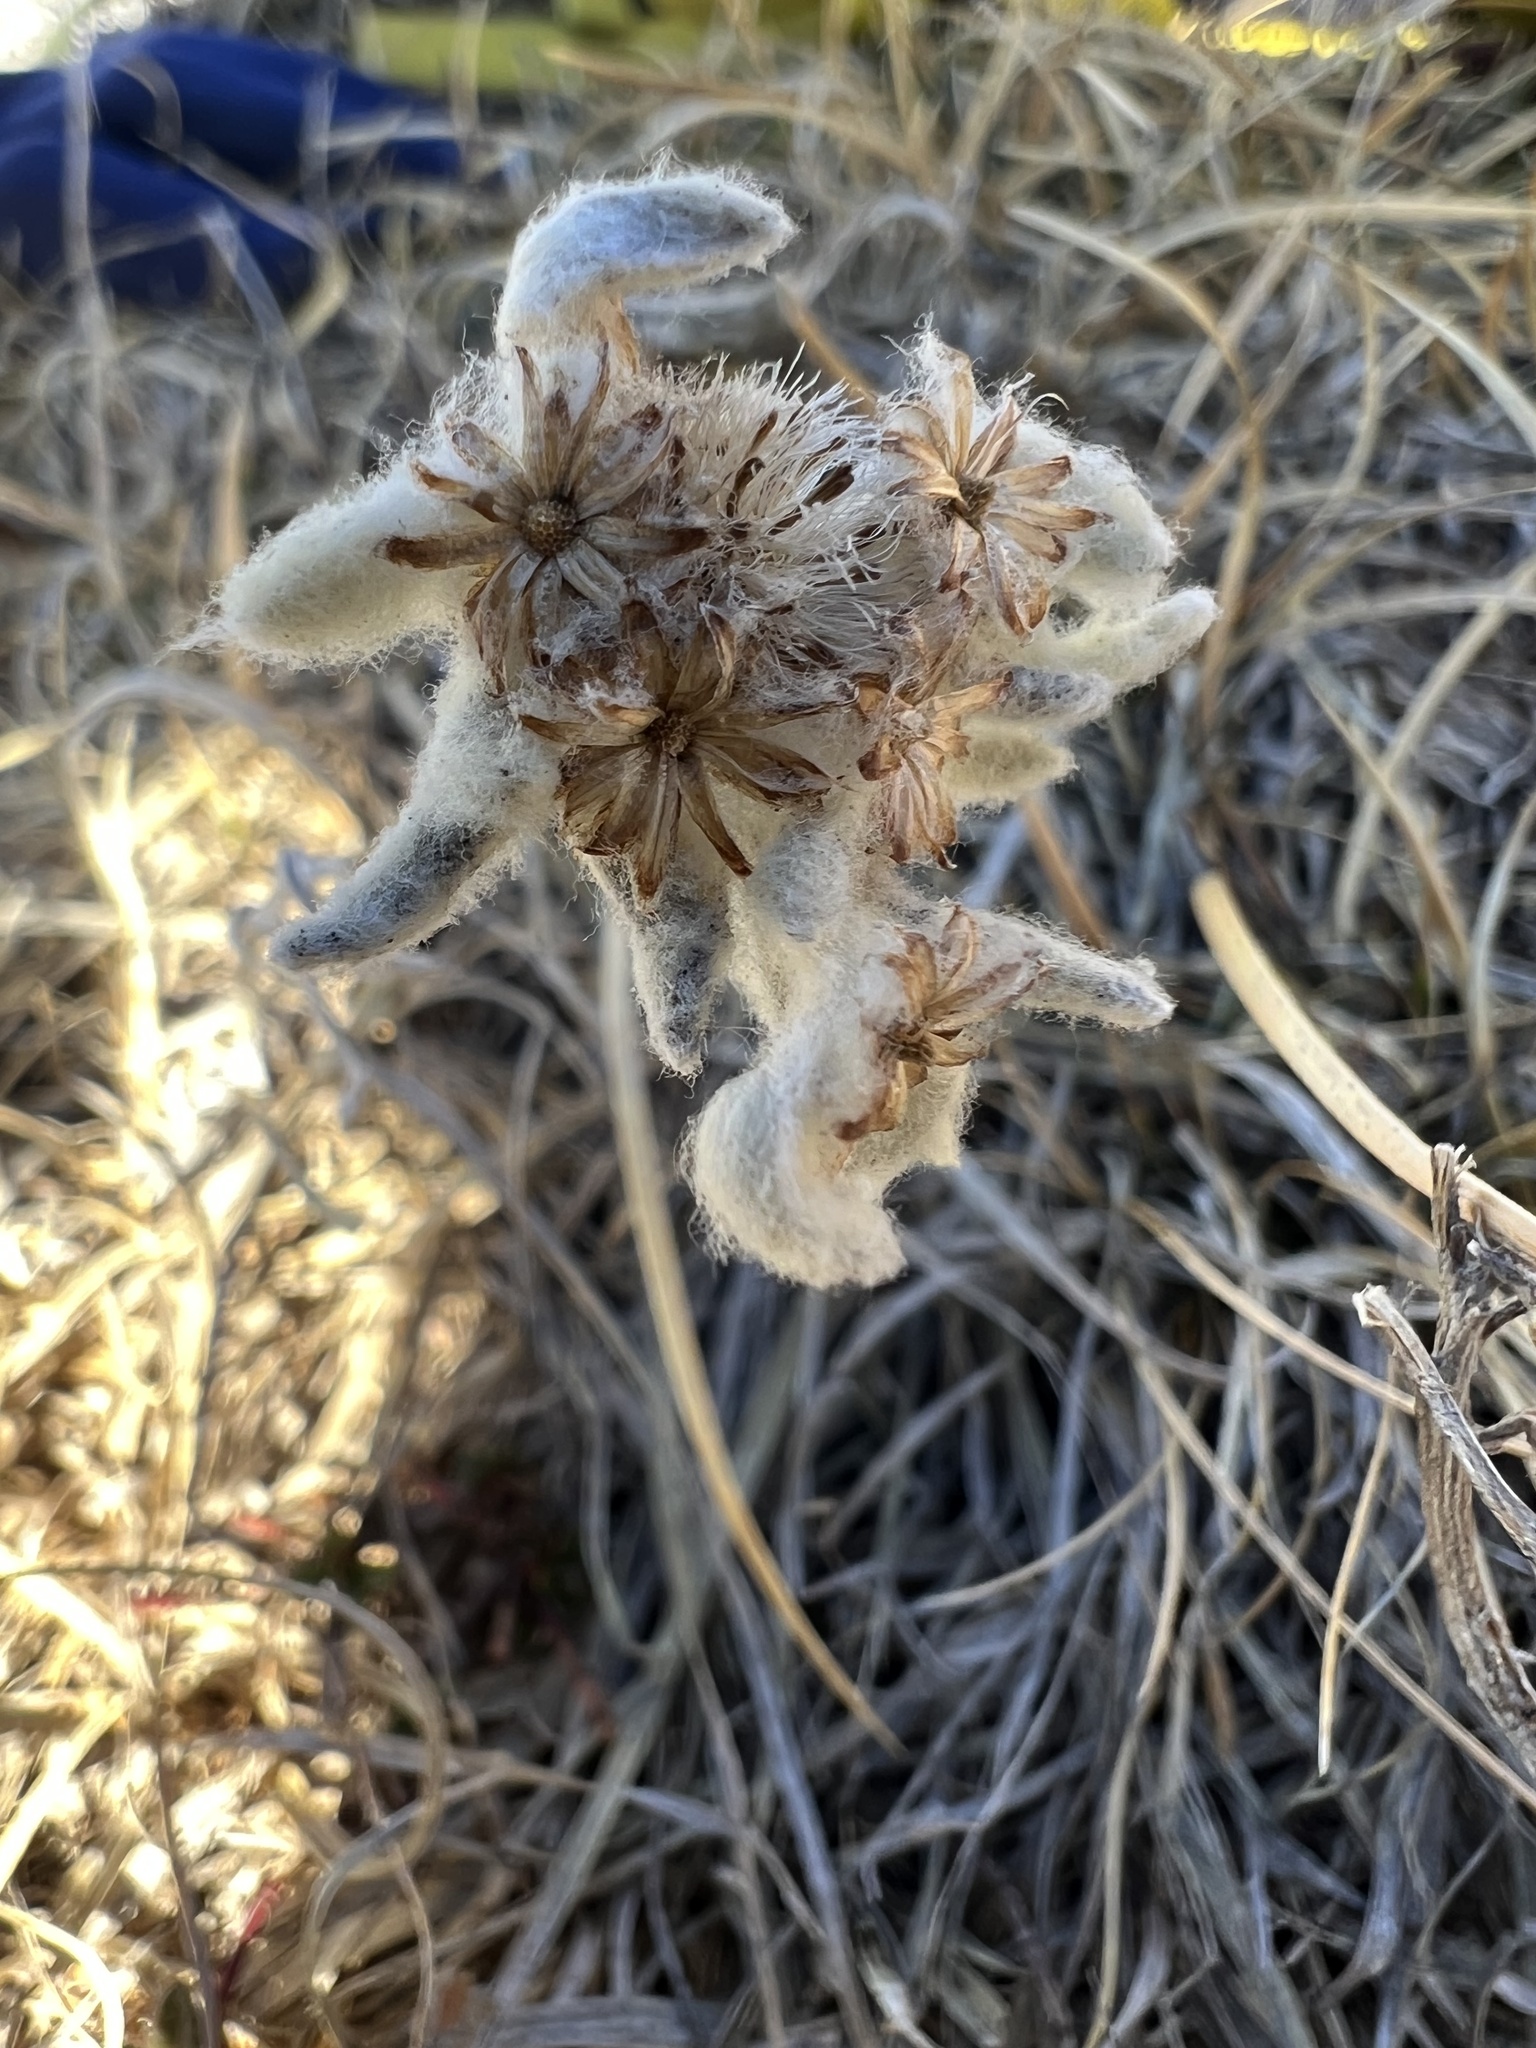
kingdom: Plantae
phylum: Tracheophyta
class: Magnoliopsida
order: Asterales
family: Asteraceae
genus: Leontopodium
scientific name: Leontopodium nivale
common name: Edelweiss
